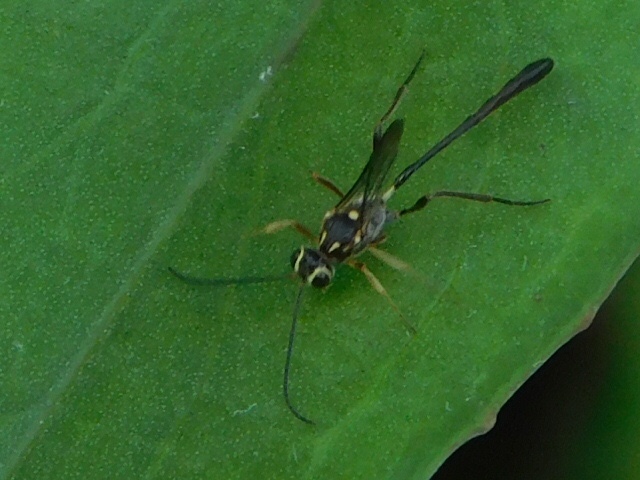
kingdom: Animalia
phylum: Arthropoda
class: Insecta
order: Hymenoptera
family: Ichneumonidae
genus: Anomalon
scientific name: Anomalon
